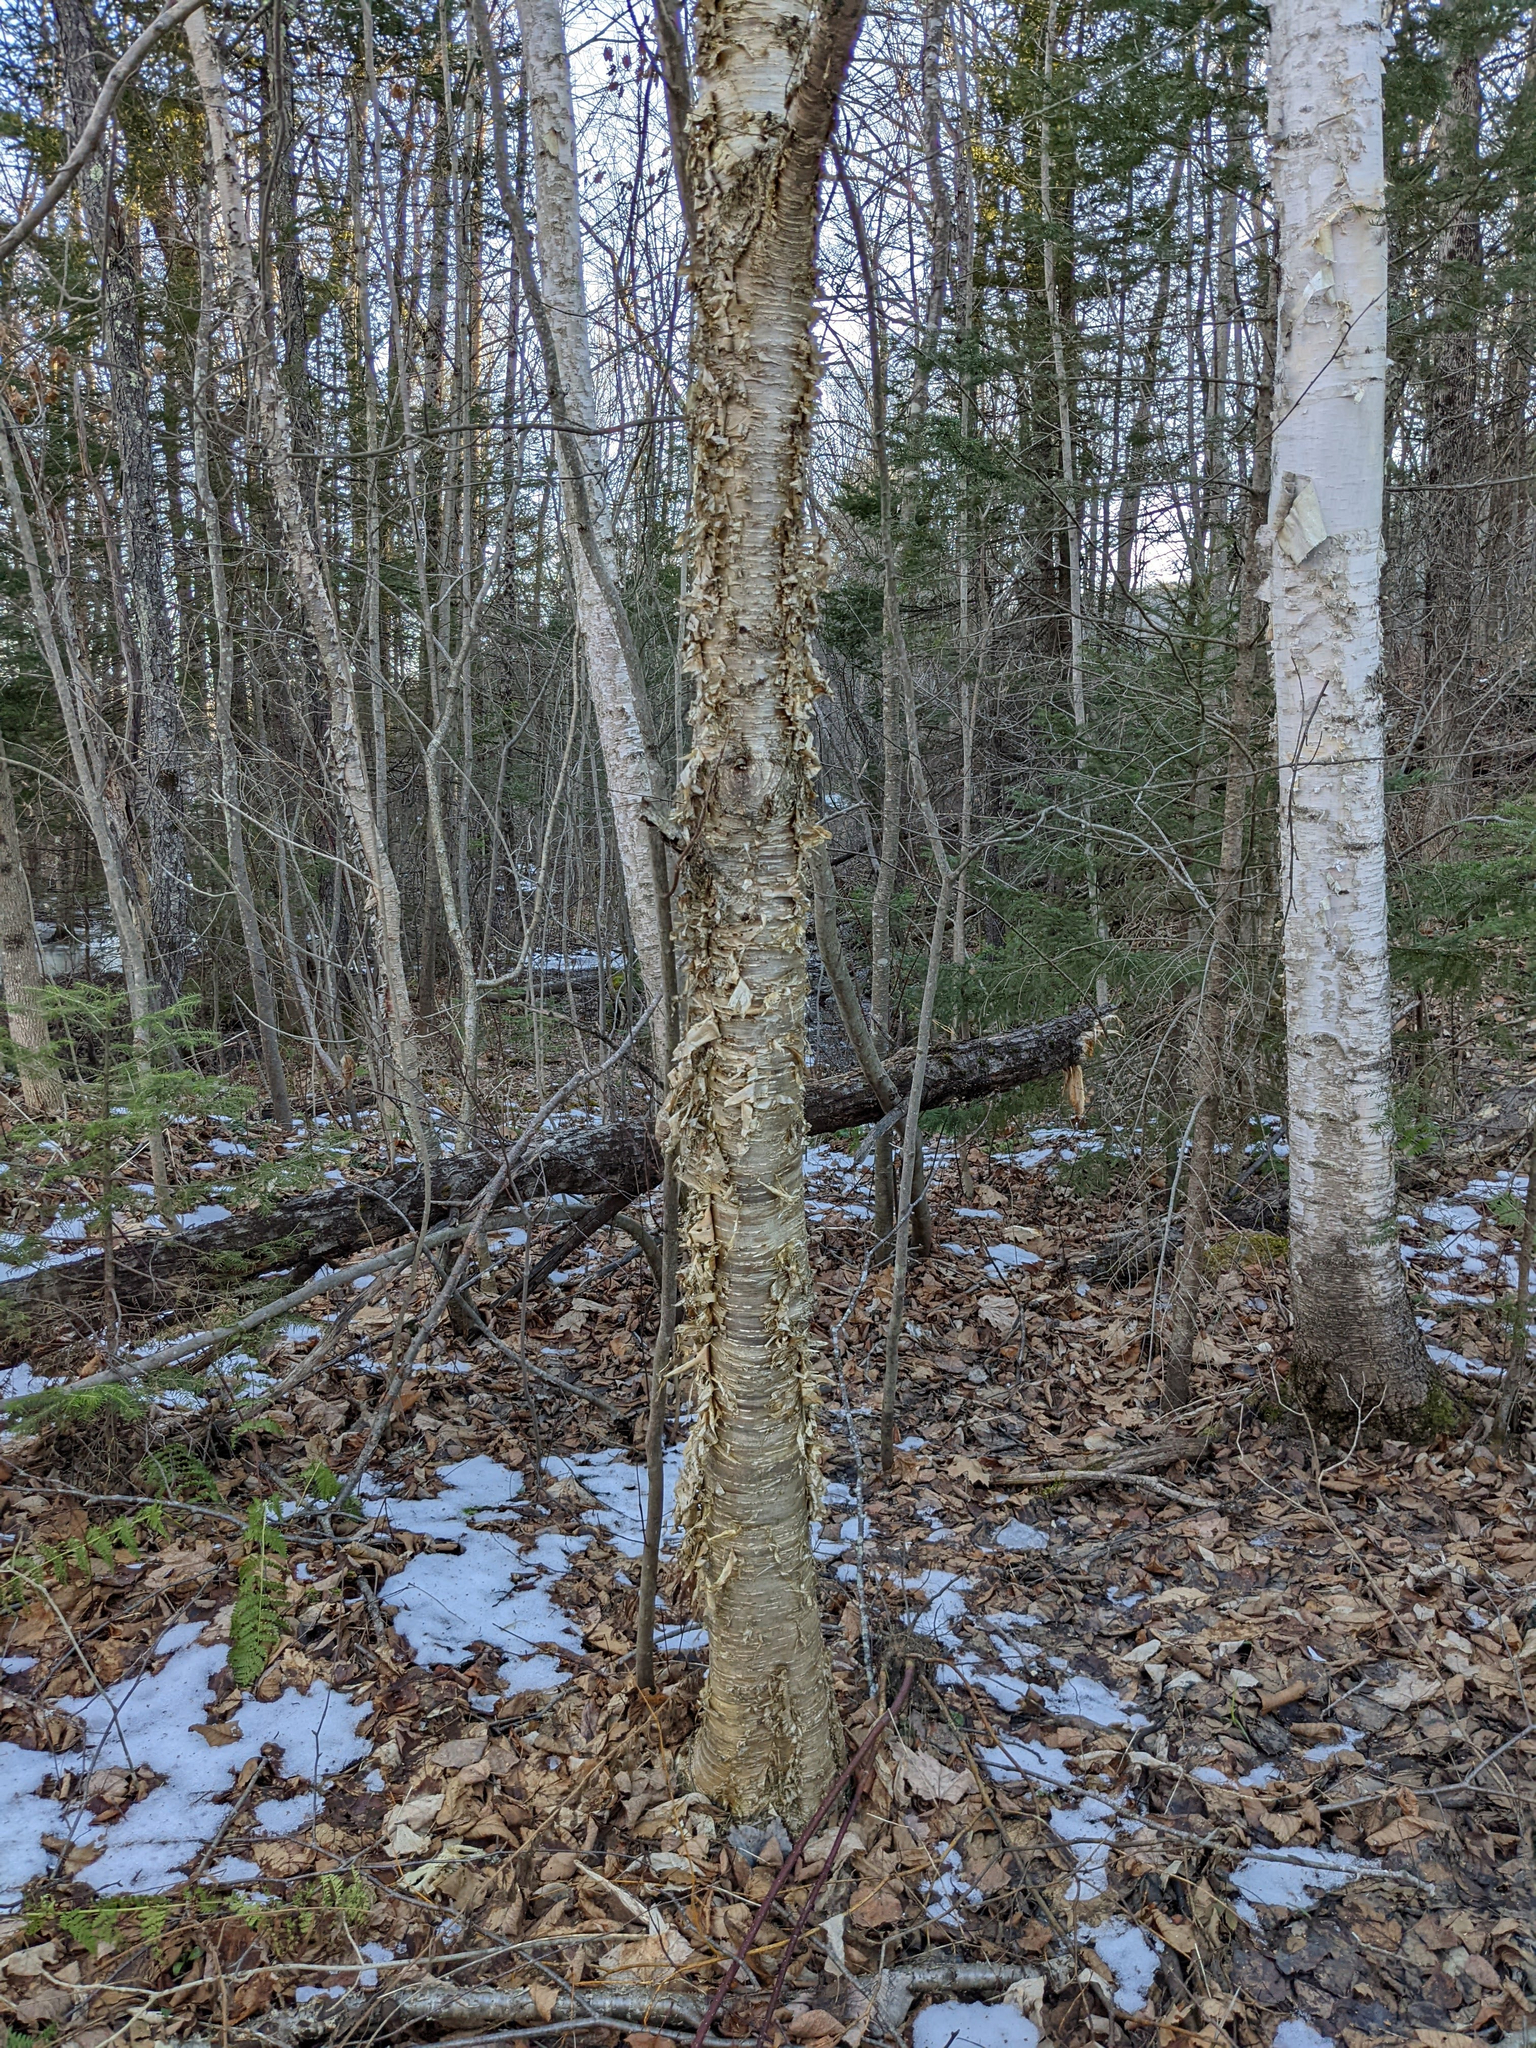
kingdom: Plantae
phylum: Tracheophyta
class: Magnoliopsida
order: Fagales
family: Betulaceae
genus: Betula
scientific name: Betula alleghaniensis
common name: Yellow birch
